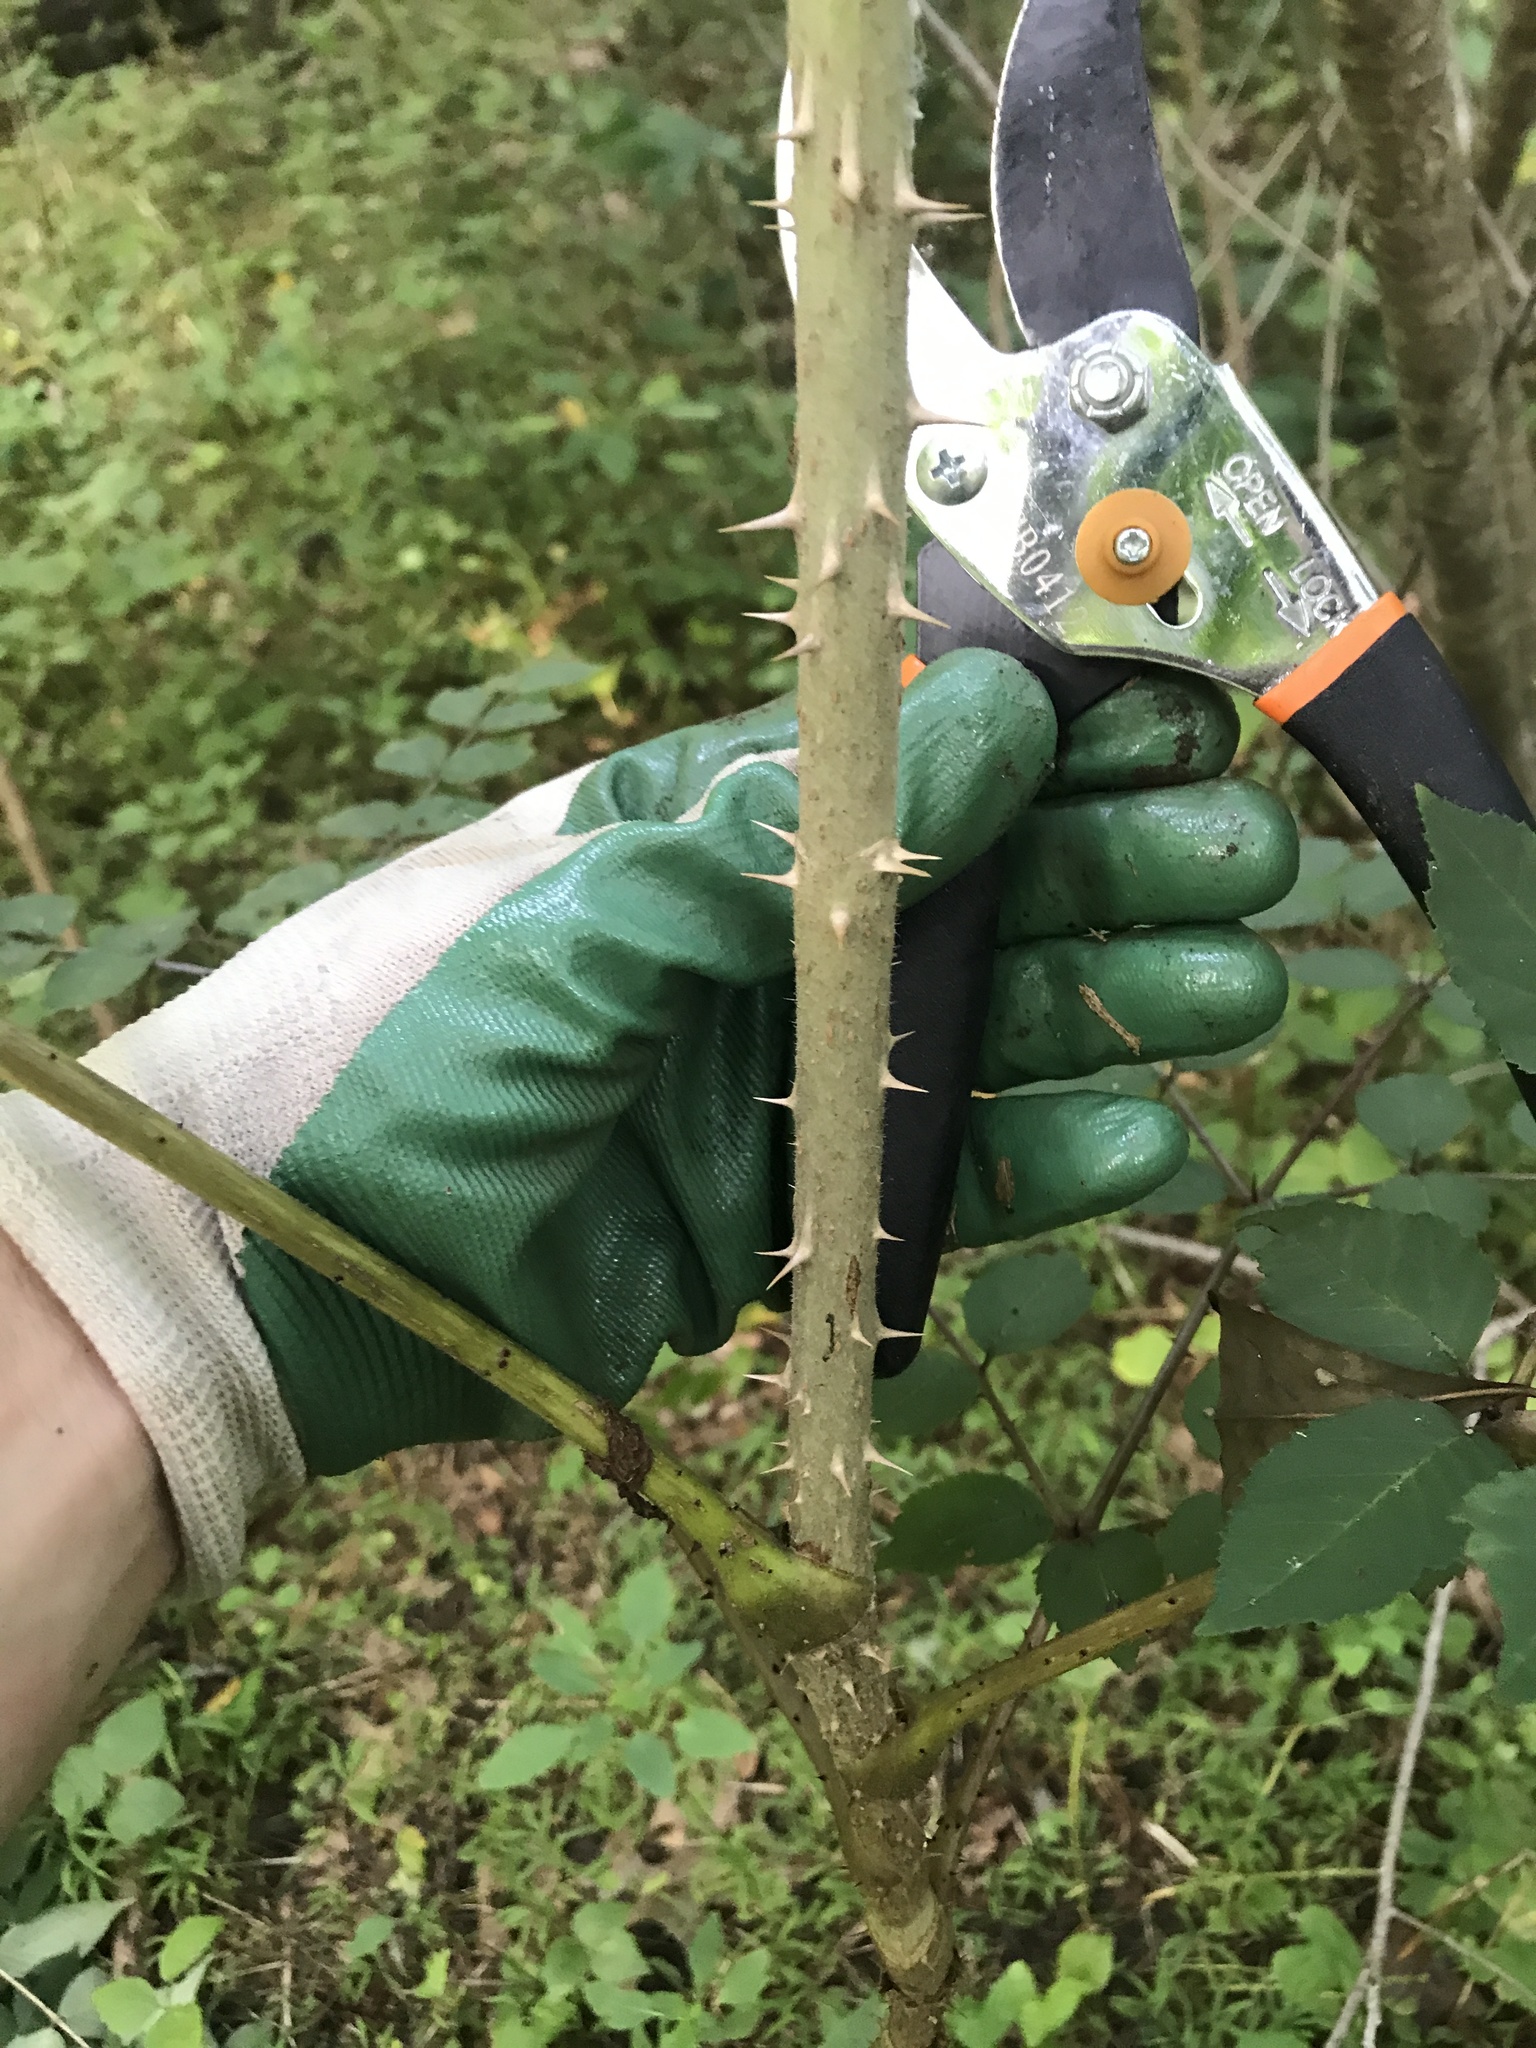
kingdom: Plantae
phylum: Tracheophyta
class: Magnoliopsida
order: Apiales
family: Araliaceae
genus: Aralia
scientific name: Aralia elata
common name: Japanese angelica-tree
